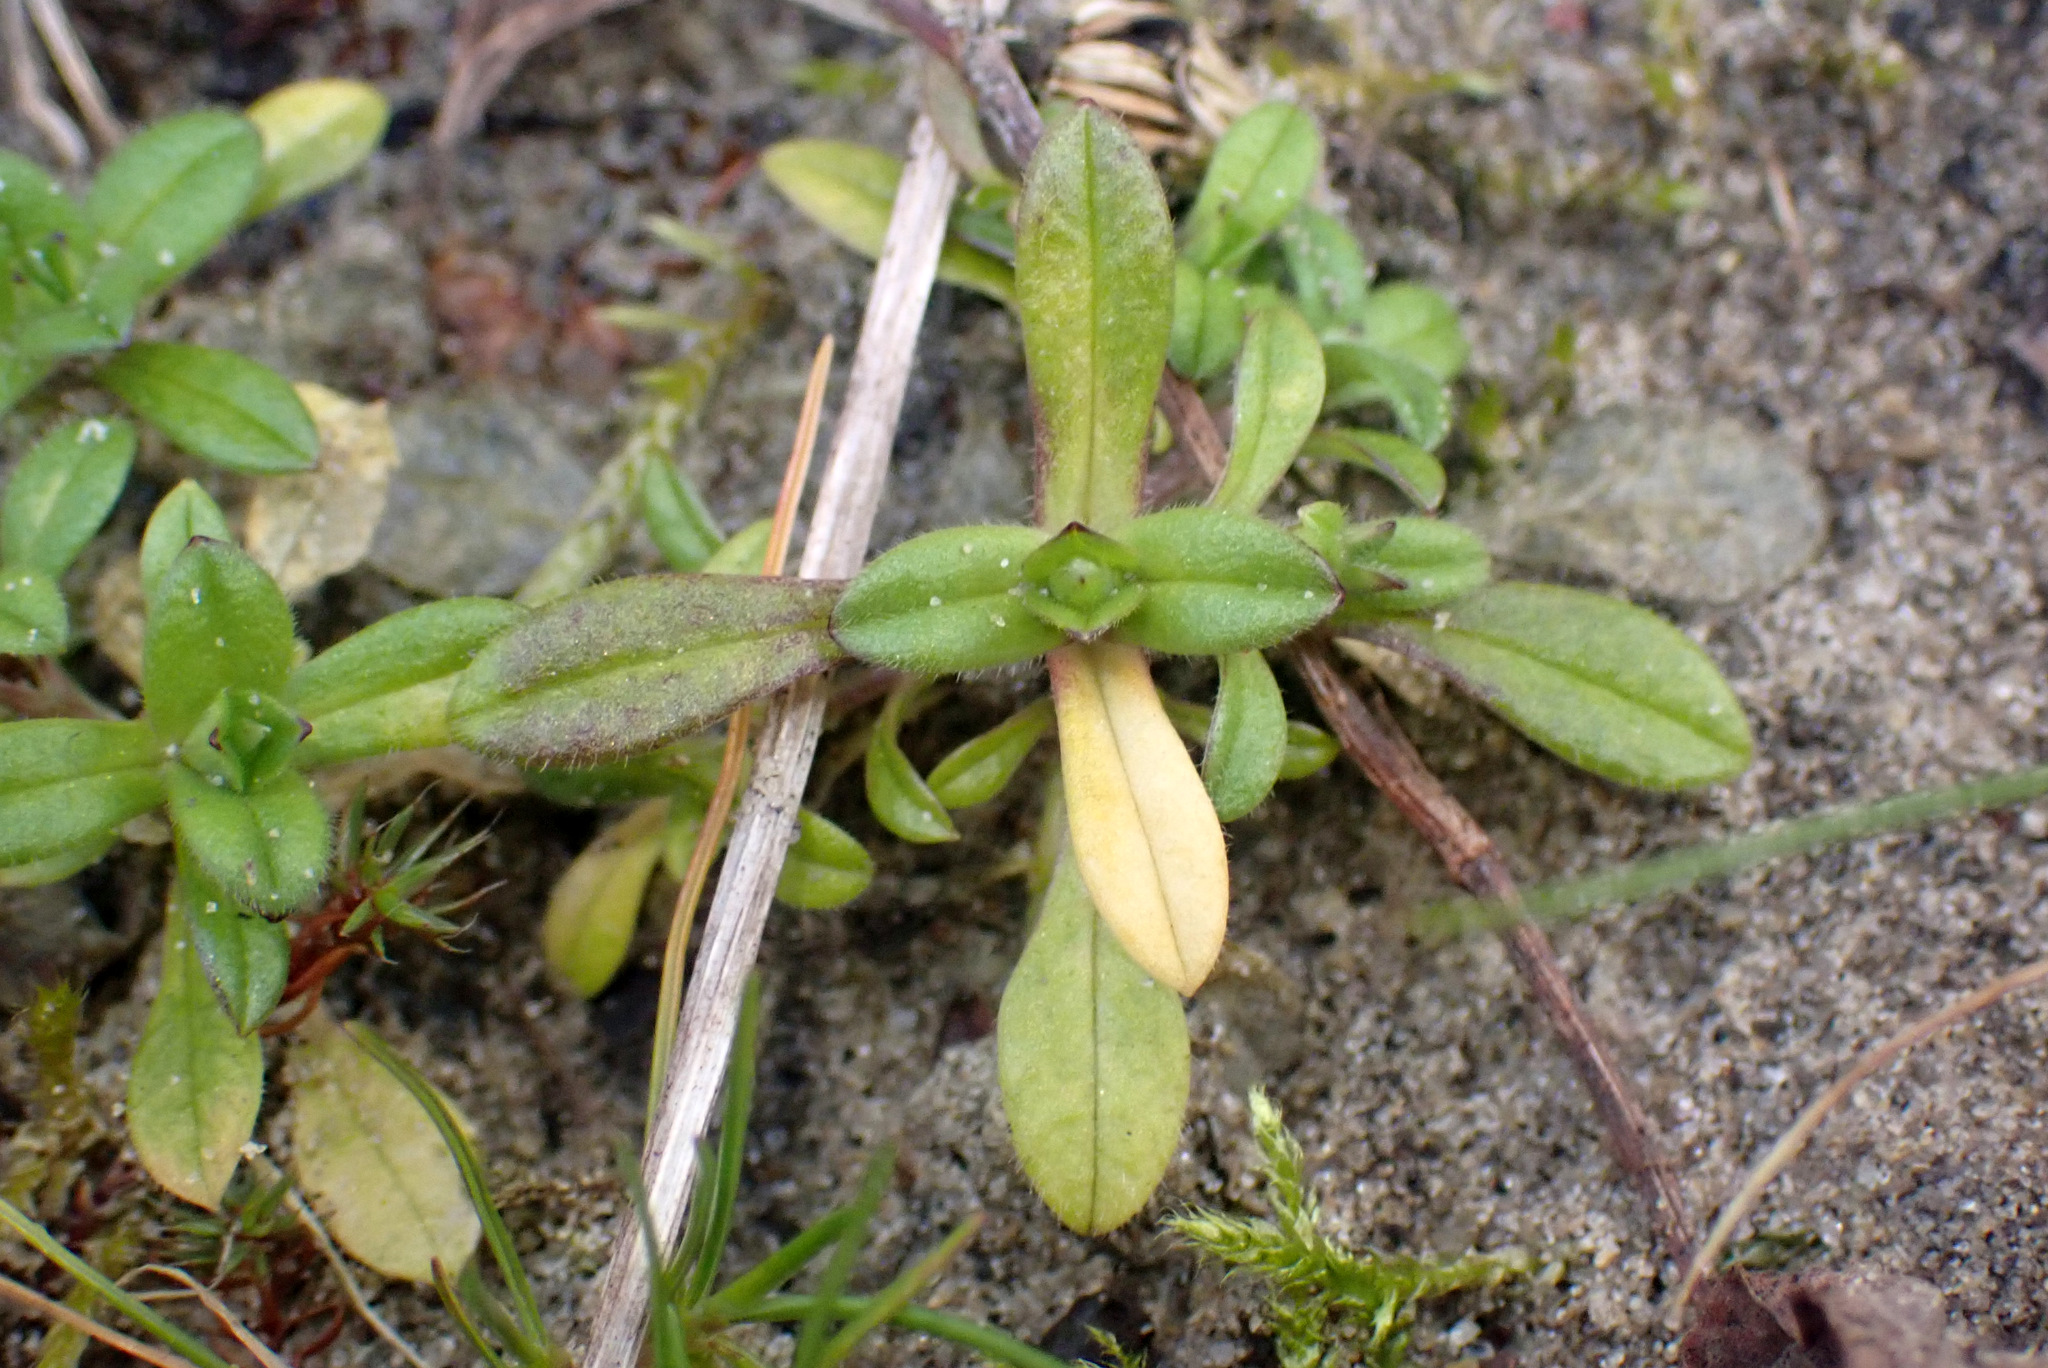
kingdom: Plantae
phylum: Tracheophyta
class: Magnoliopsida
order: Caryophyllales
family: Caryophyllaceae
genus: Cerastium
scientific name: Cerastium semidecandrum
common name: Little mouse-ear
